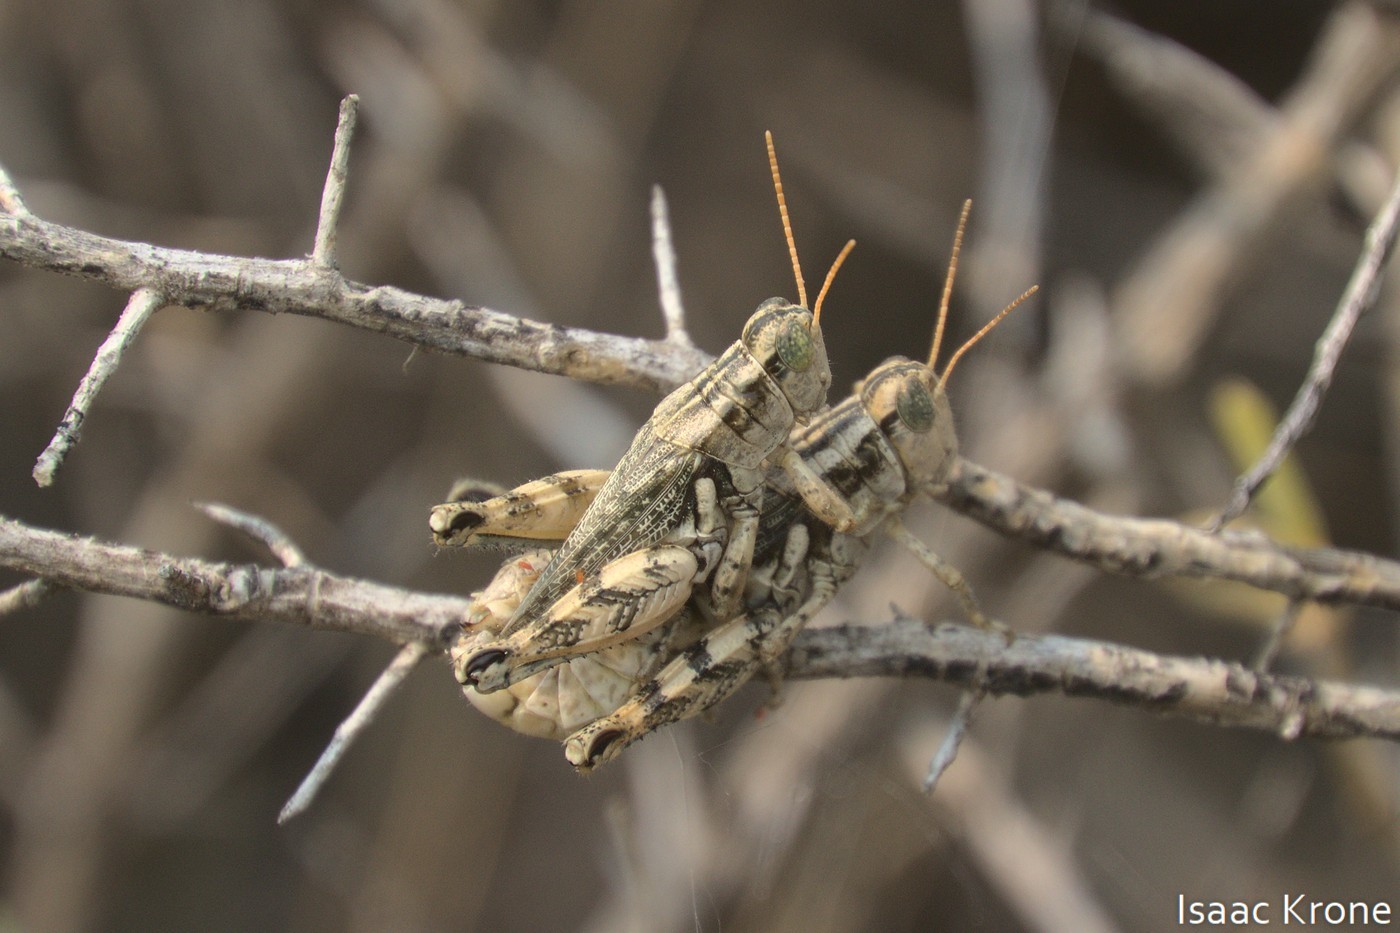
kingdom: Animalia
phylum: Arthropoda
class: Insecta
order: Orthoptera
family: Acrididae
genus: Aeoloplides
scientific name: Aeoloplides turnbulli
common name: Russianthistle grasshopper
